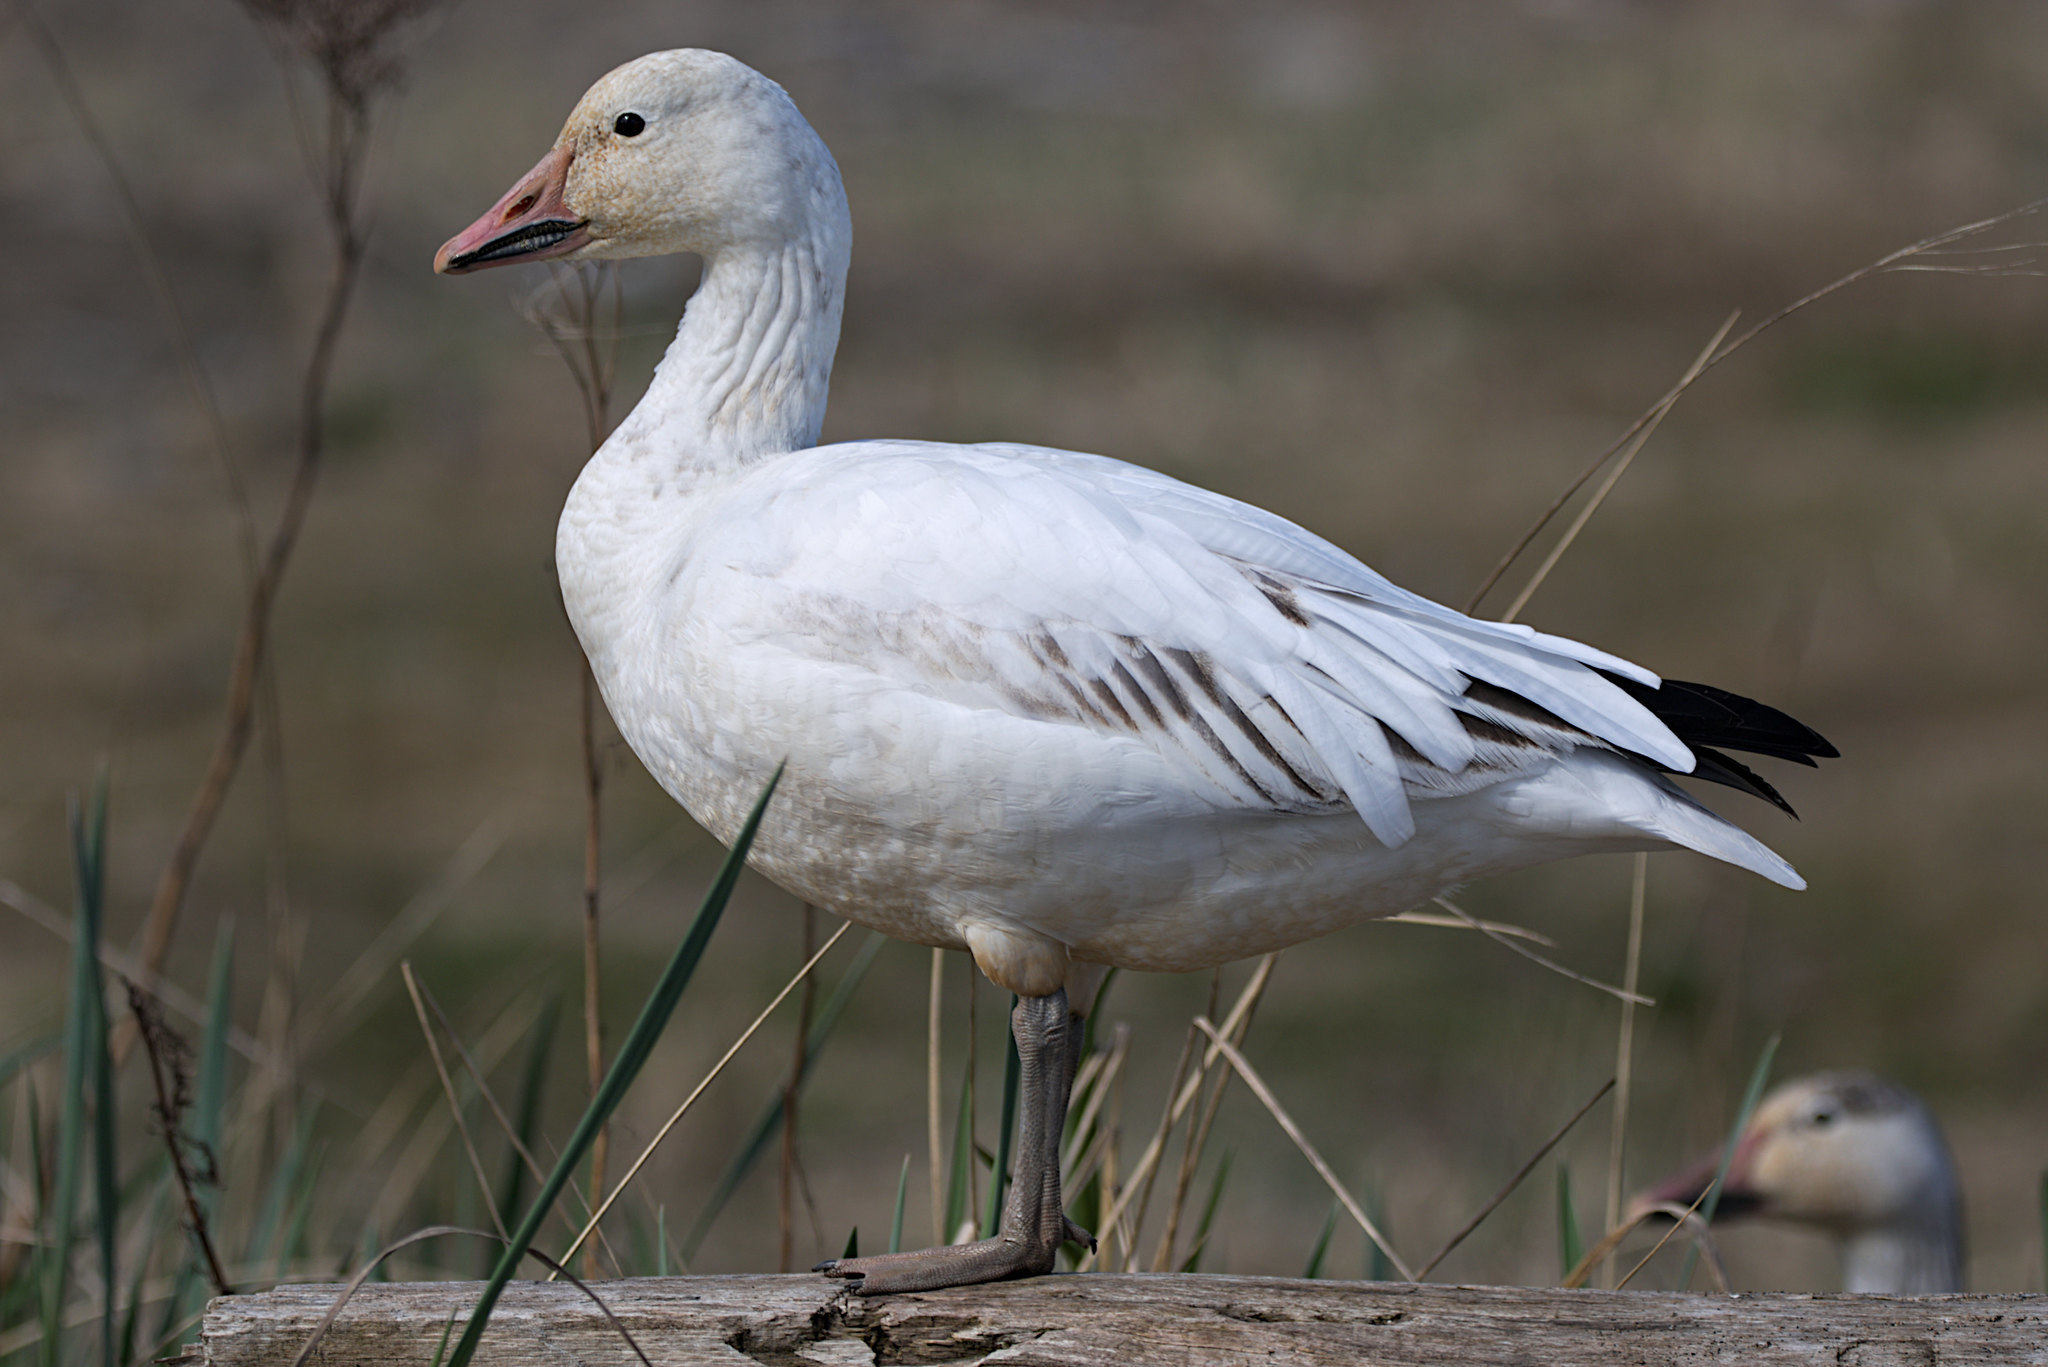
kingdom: Animalia
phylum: Chordata
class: Aves
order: Anseriformes
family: Anatidae
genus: Anser
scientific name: Anser caerulescens
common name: Snow goose
